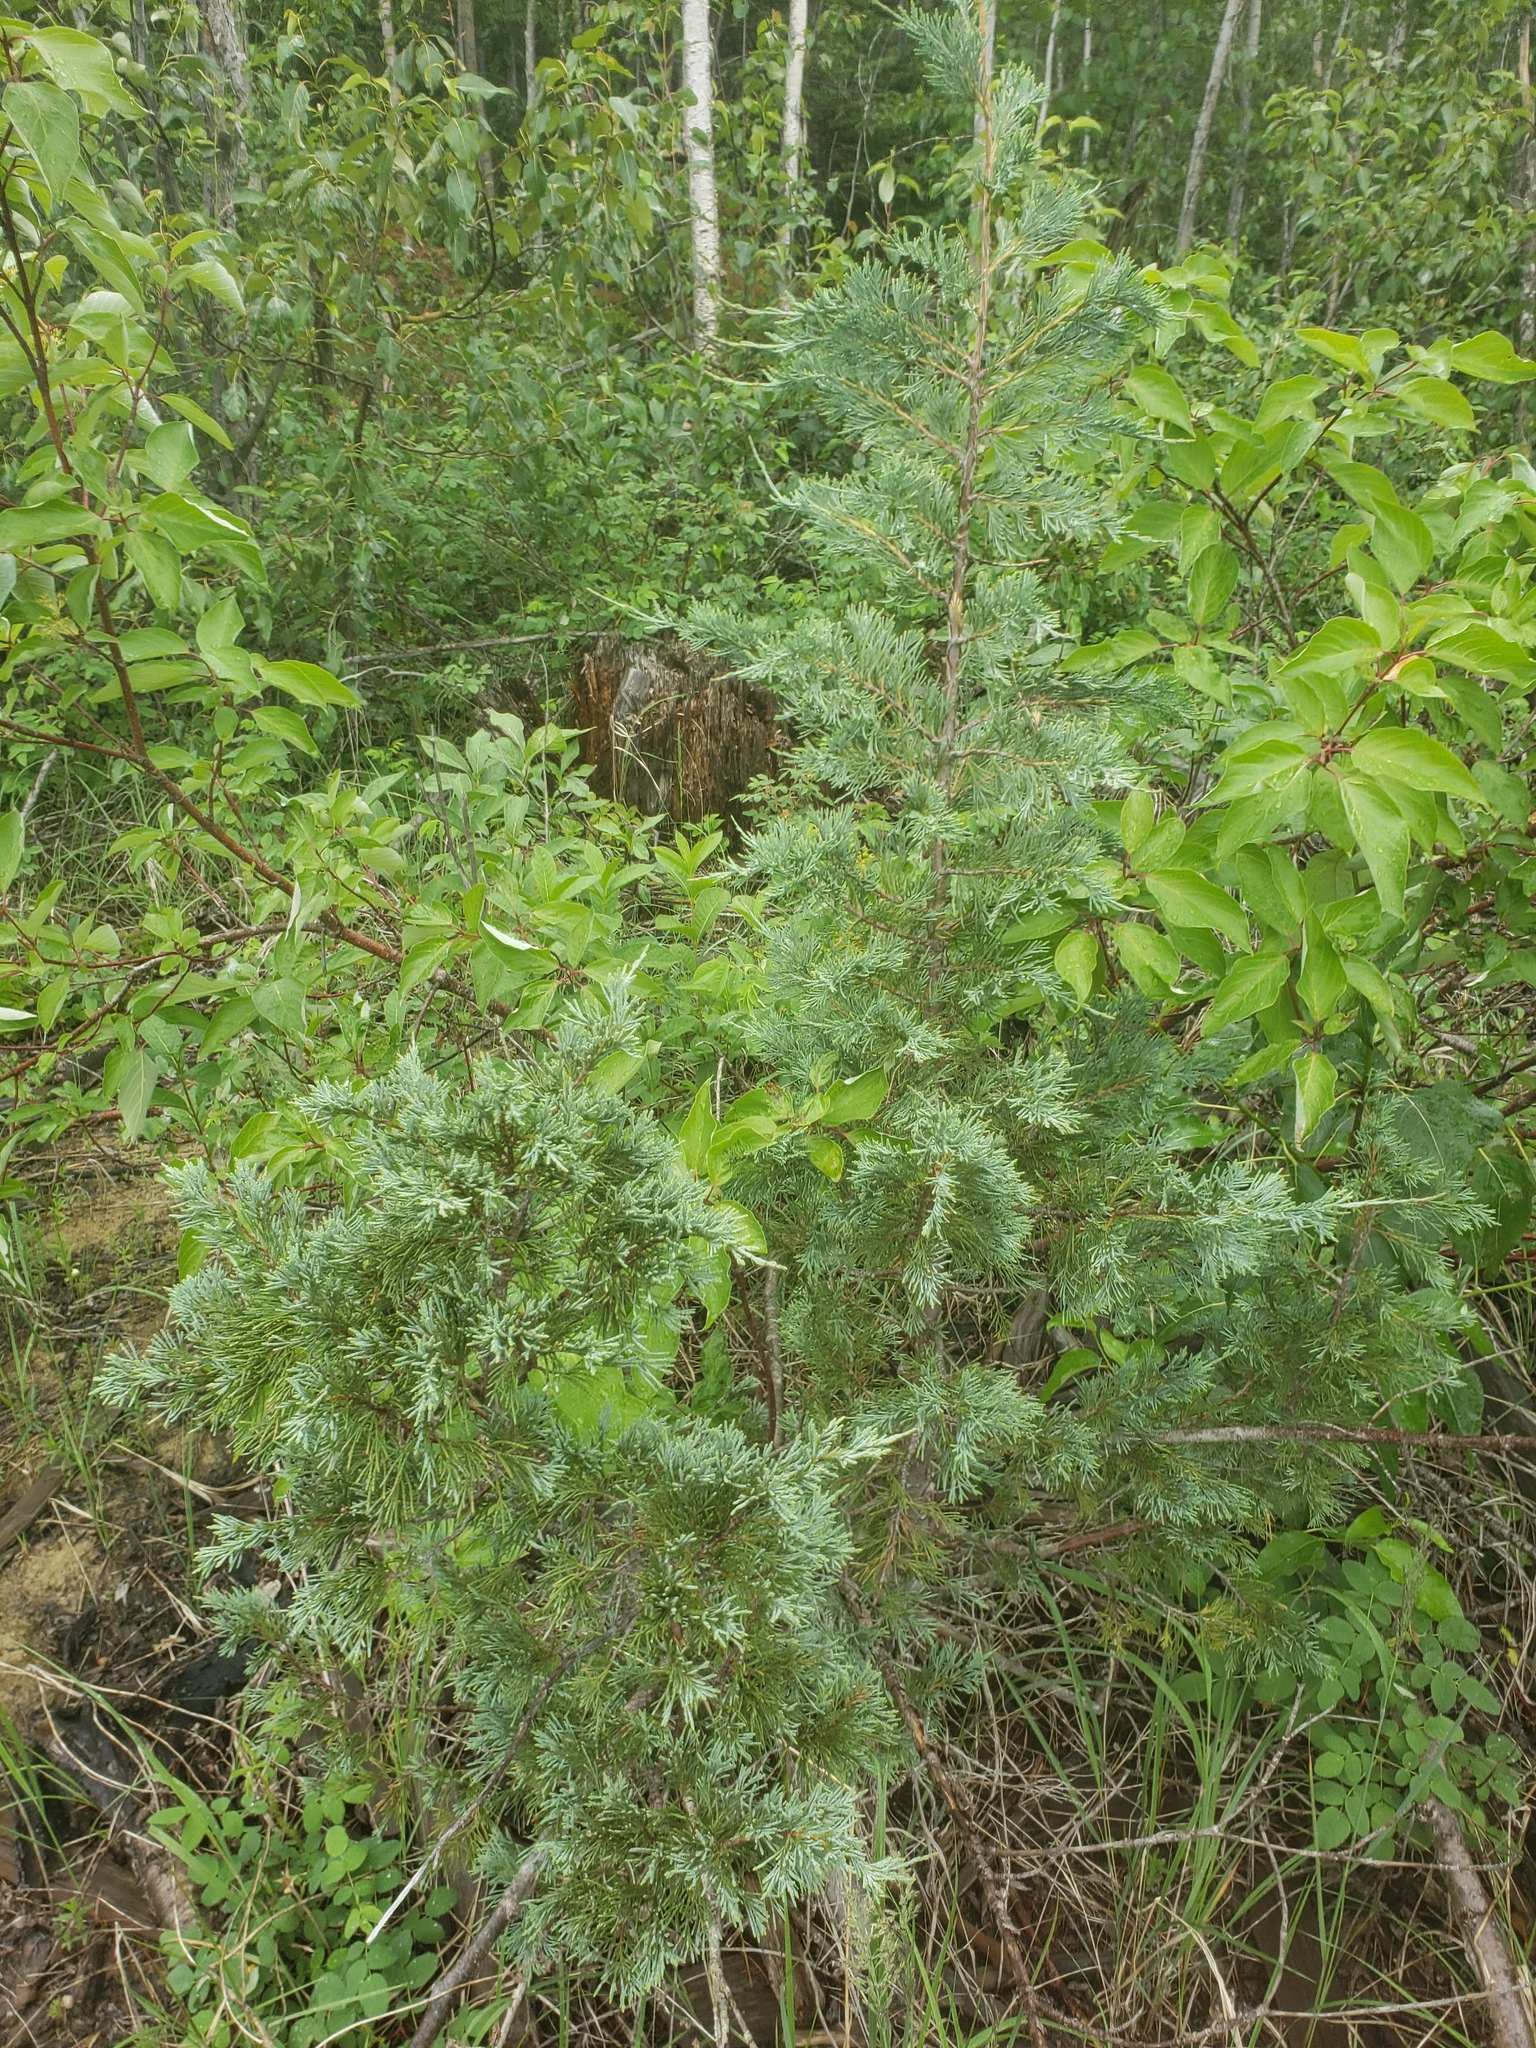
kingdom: Plantae
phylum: Tracheophyta
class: Pinopsida
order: Pinales
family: Cupressaceae
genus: Juniperus
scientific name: Juniperus scopulorum
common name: Rocky mountain juniper
